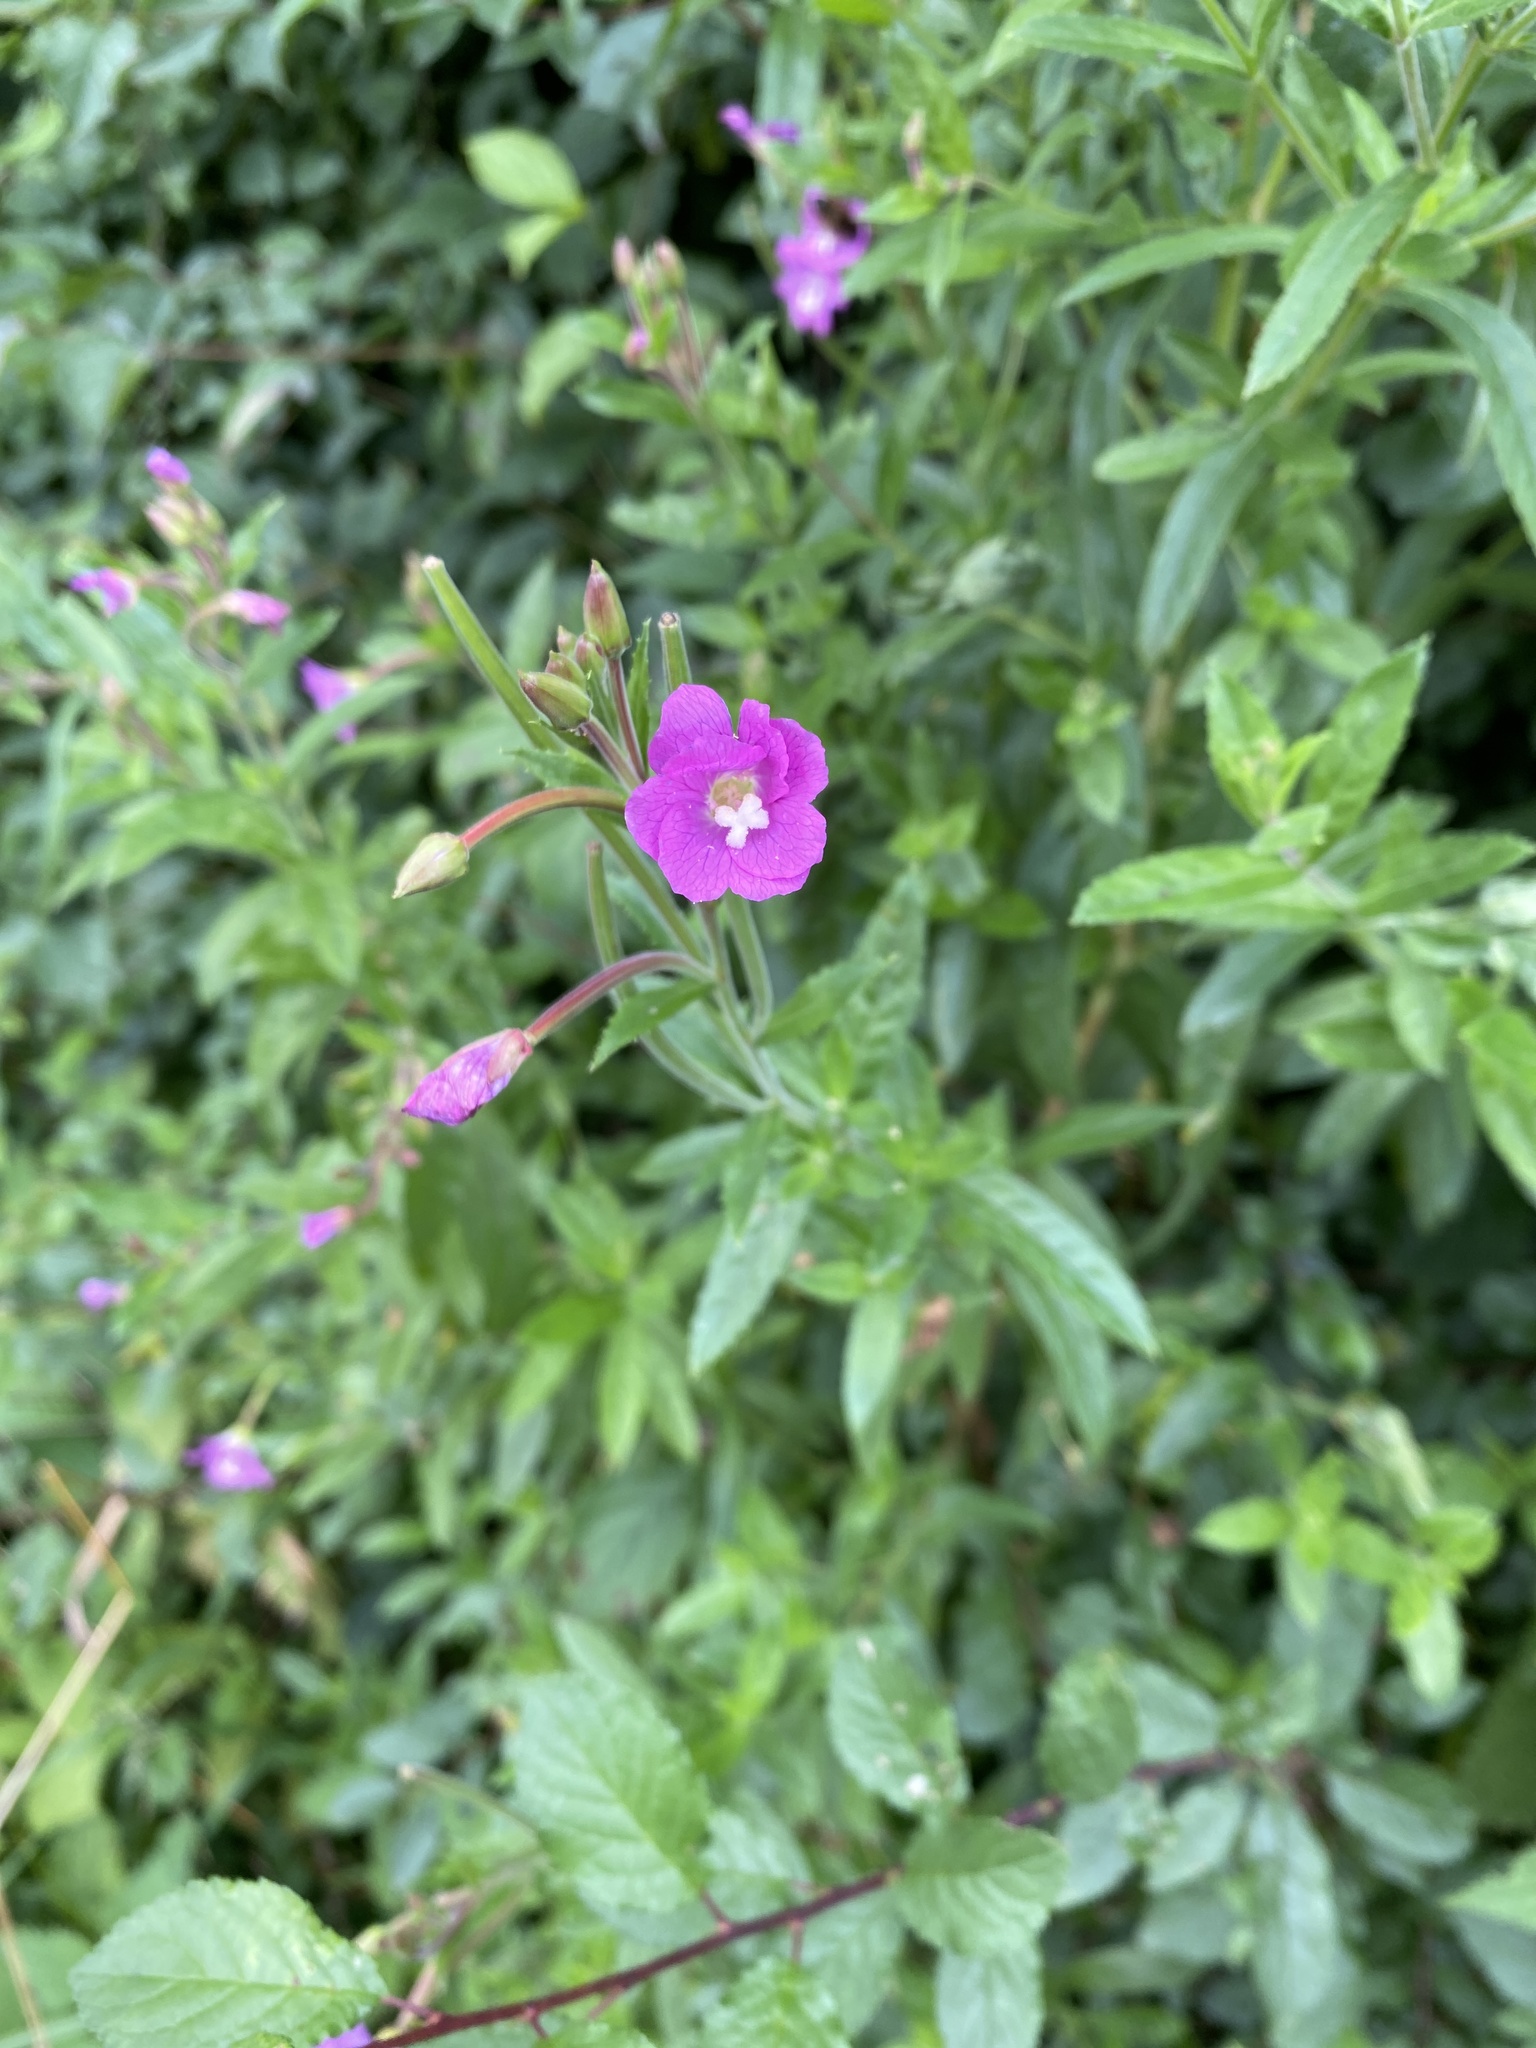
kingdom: Plantae
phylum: Tracheophyta
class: Magnoliopsida
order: Myrtales
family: Onagraceae
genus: Epilobium
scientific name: Epilobium hirsutum
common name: Great willowherb
